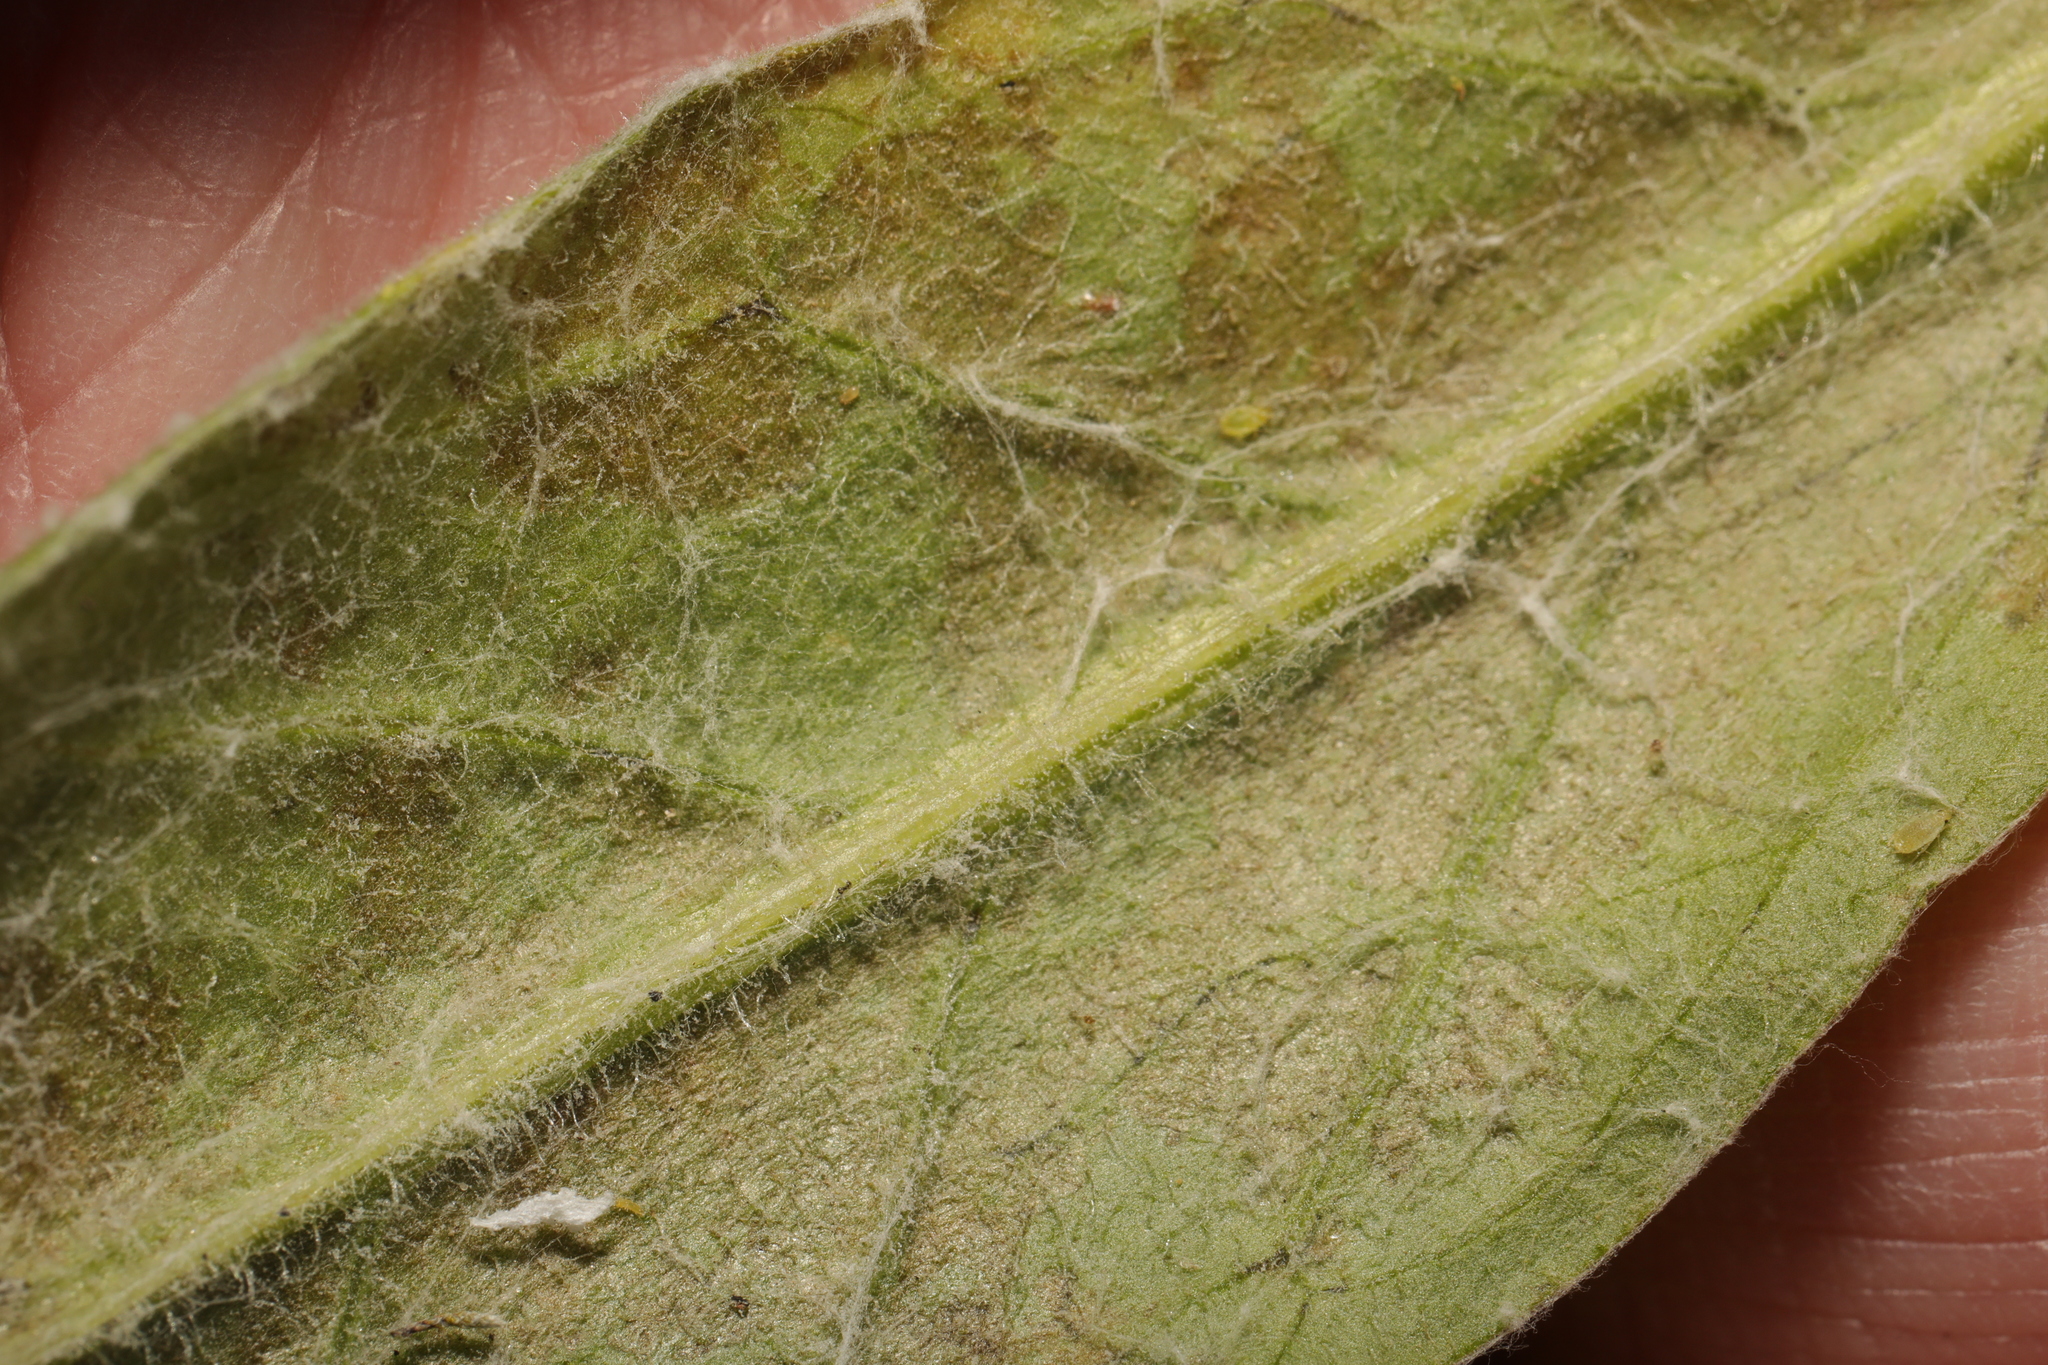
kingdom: Fungi
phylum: Ascomycota
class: Leotiomycetes
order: Helotiales
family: Erysiphaceae
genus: Golovinomyces
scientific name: Golovinomyces depressus
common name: Burdock mildew
